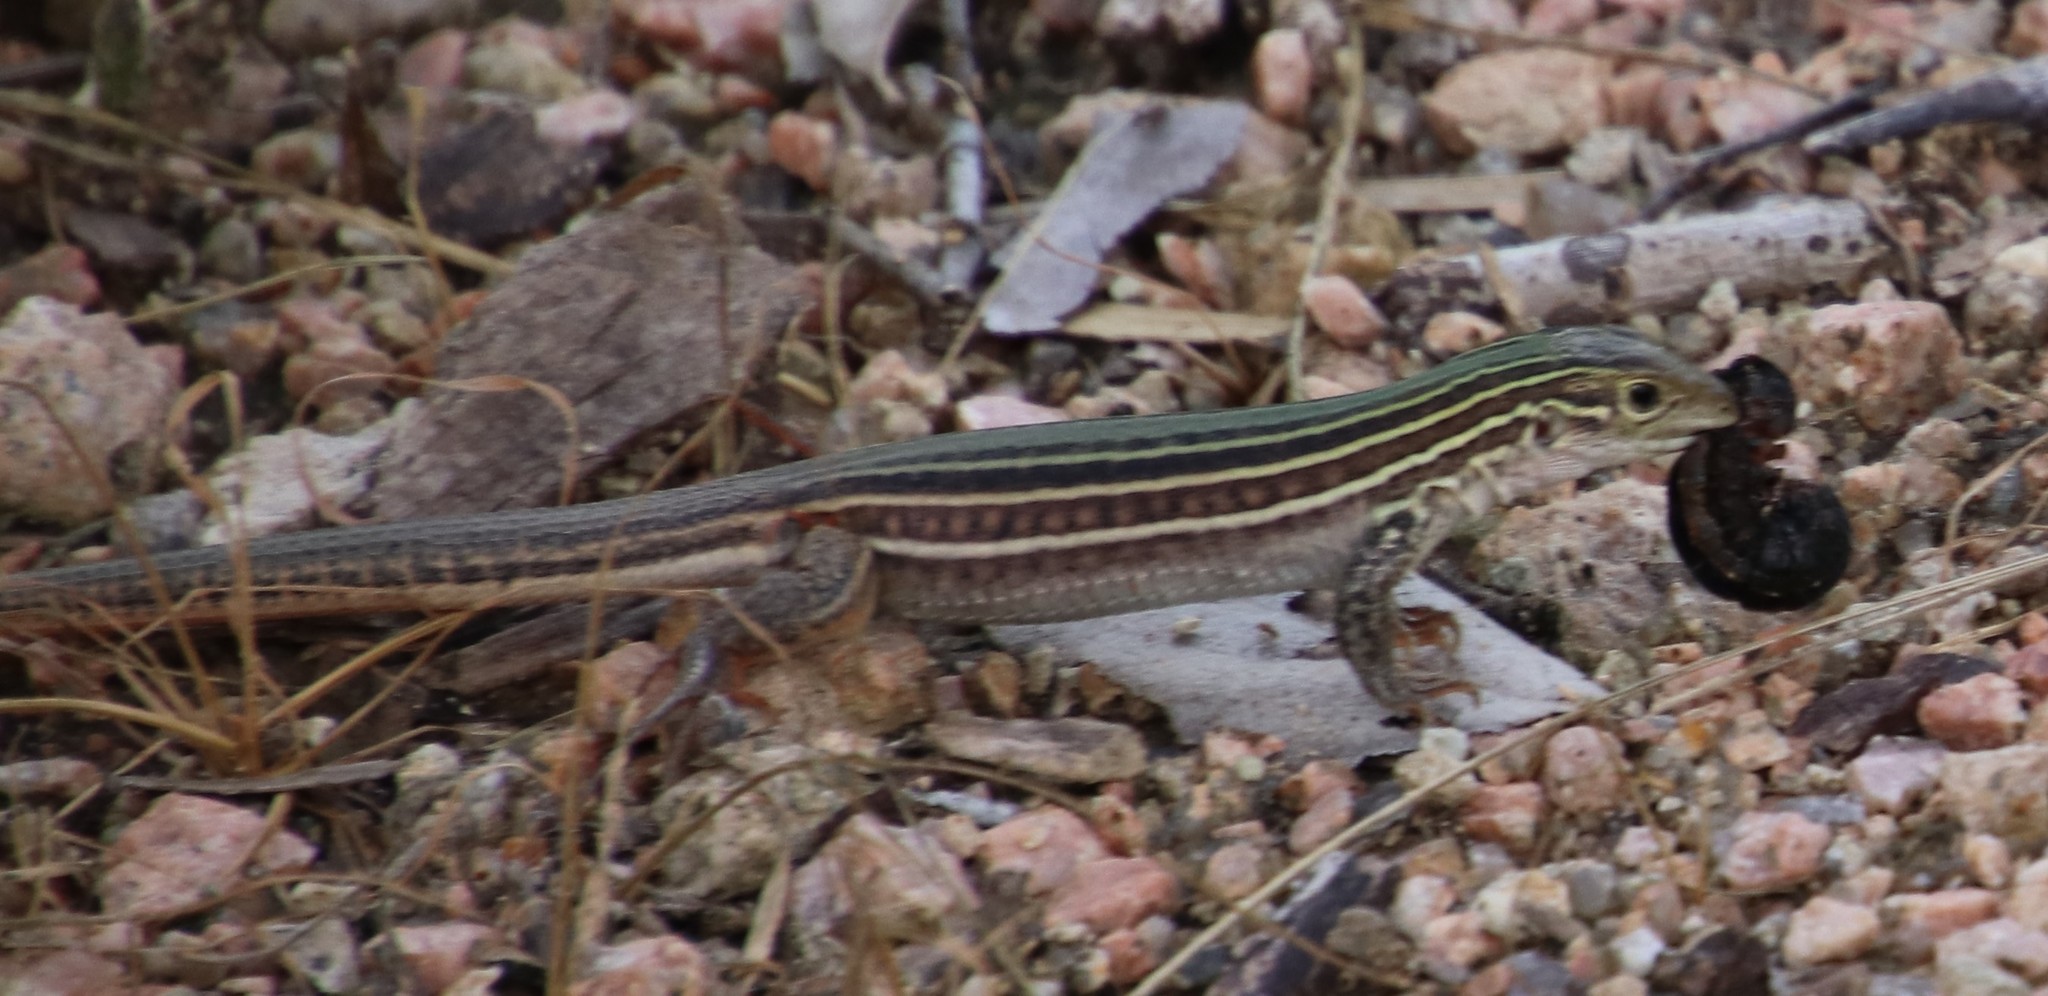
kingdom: Animalia
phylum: Chordata
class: Squamata
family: Teiidae
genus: Aspidoscelis
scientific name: Aspidoscelis gularis
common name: Eastern spotted whiptail
